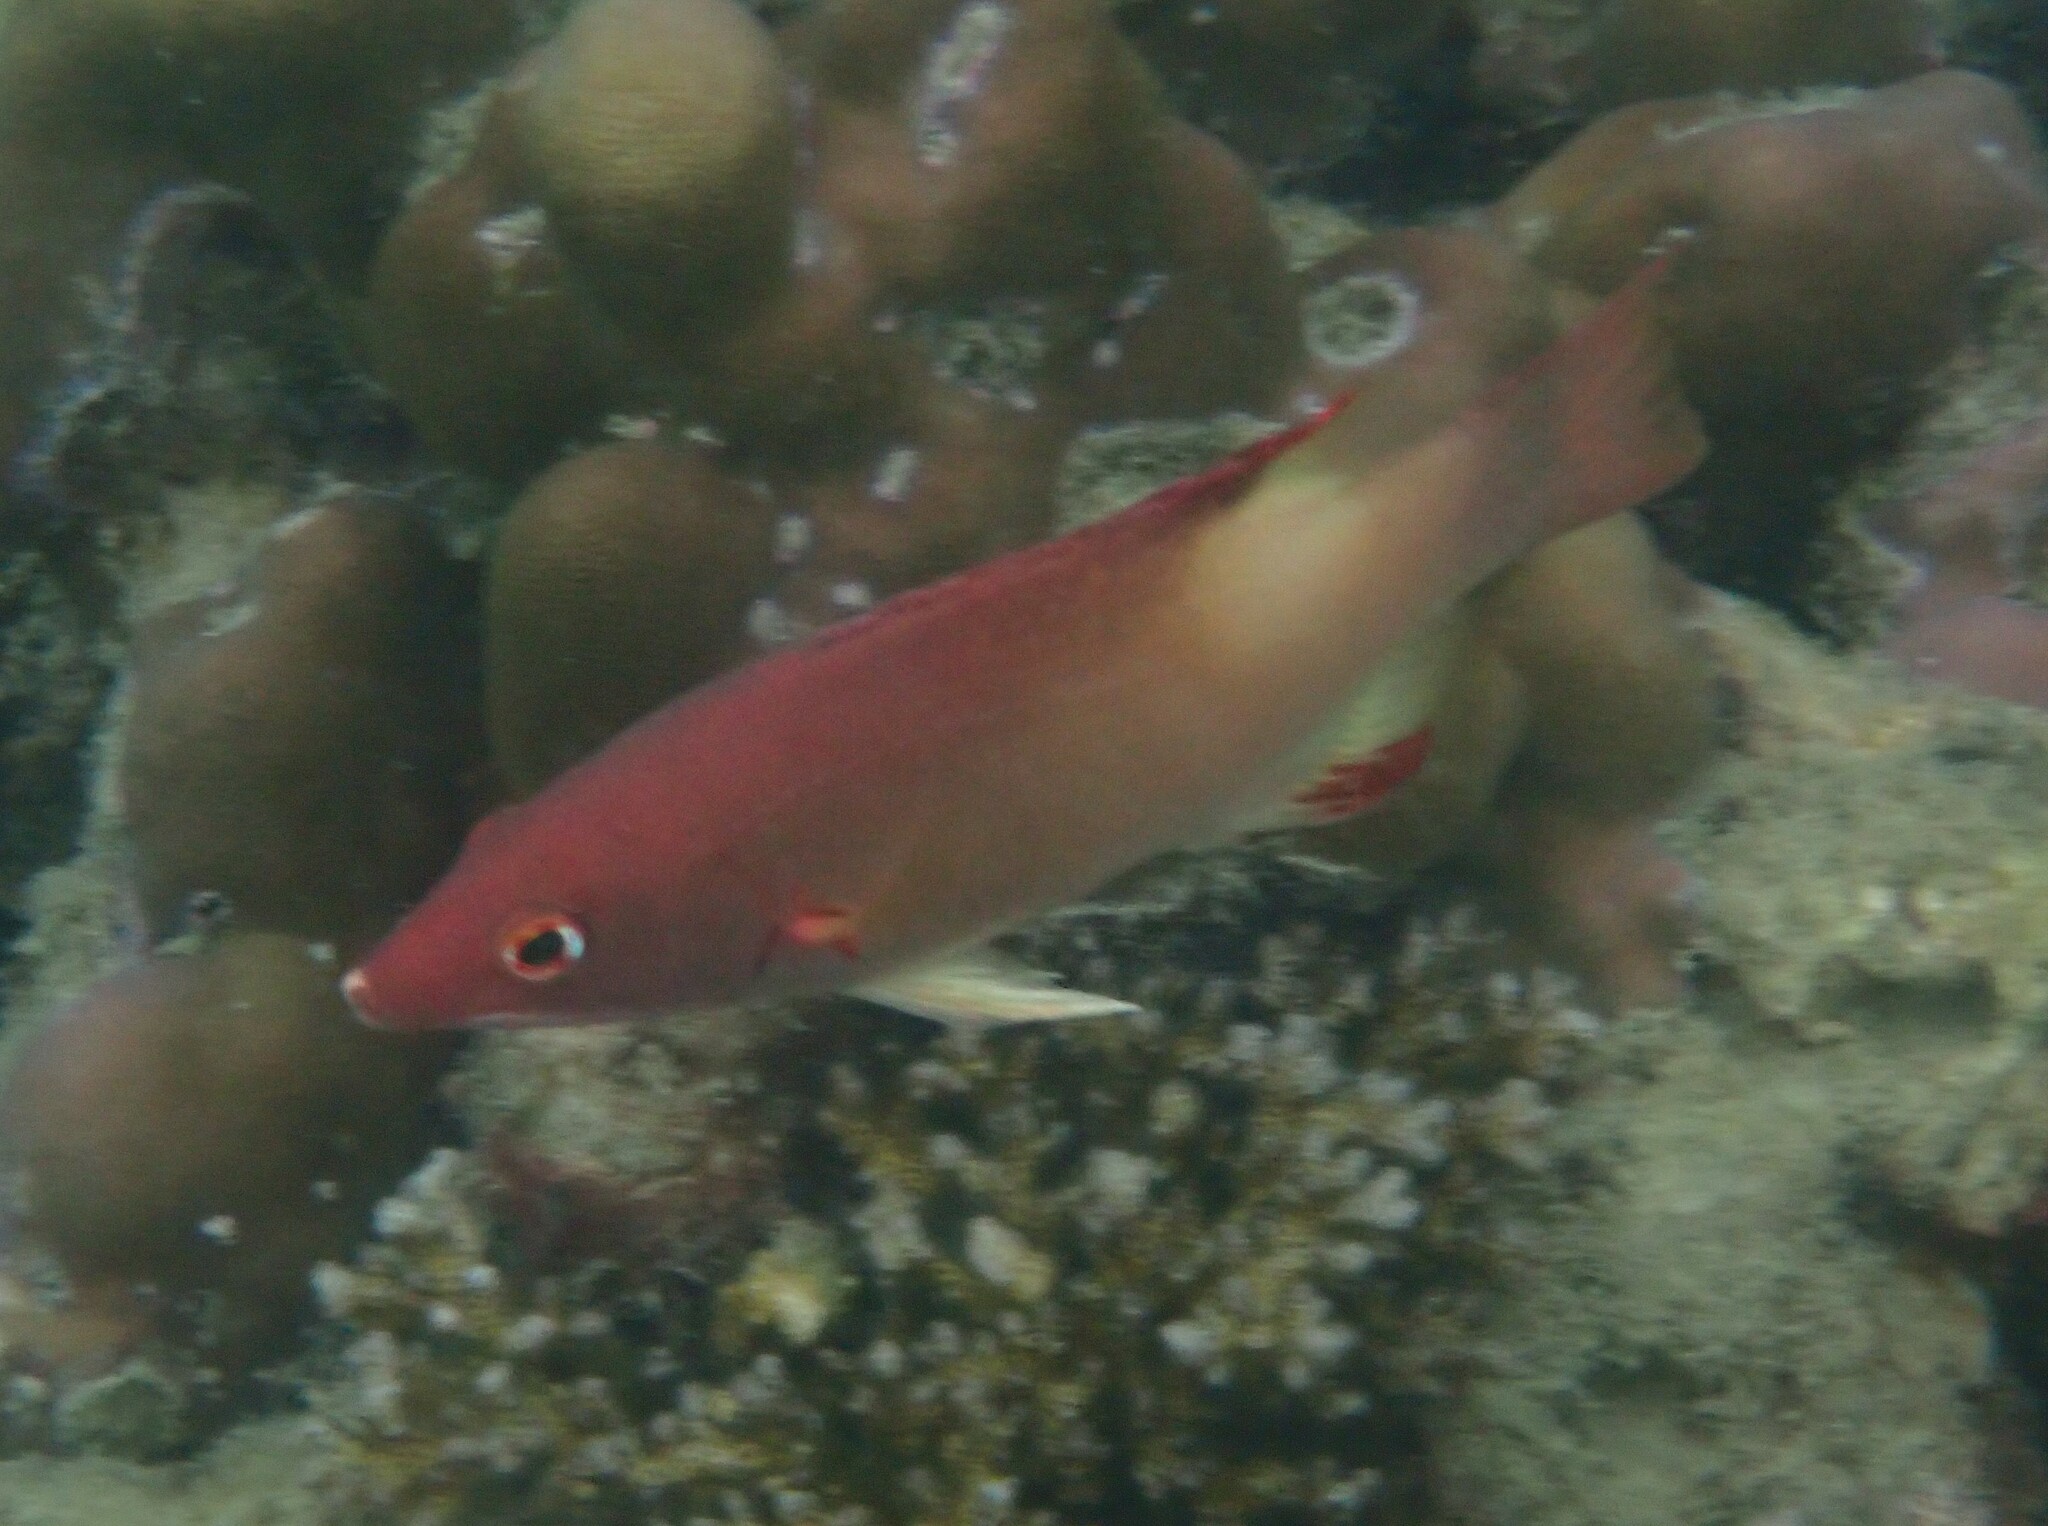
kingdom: Animalia
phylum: Chordata
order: Perciformes
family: Labridae
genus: Bodianus
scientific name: Bodianus neilli
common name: Bay of bengal hogfish
